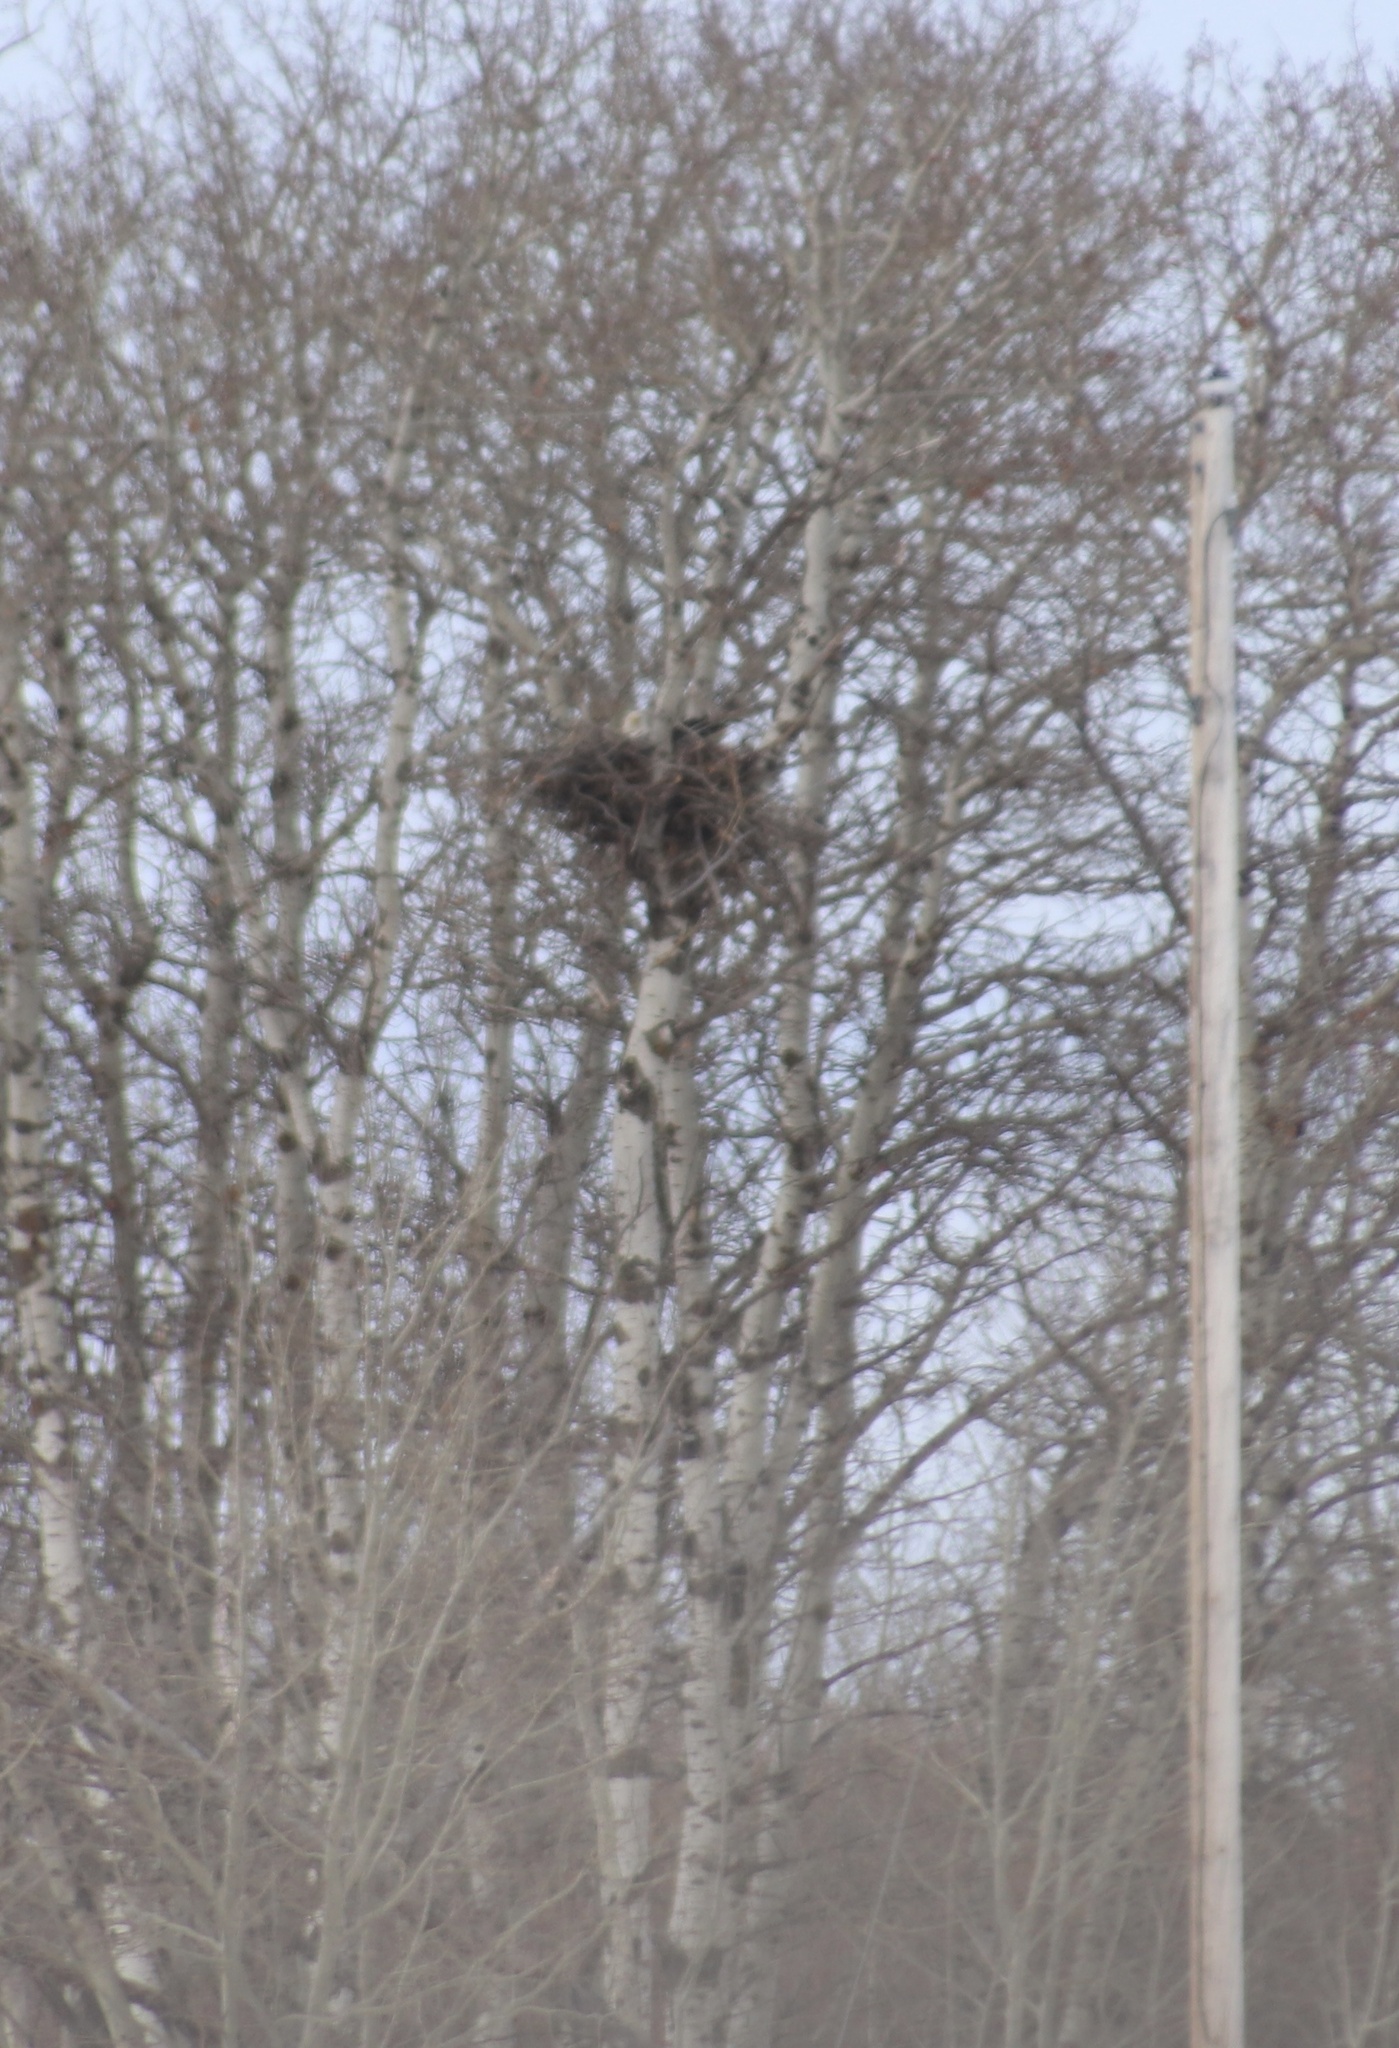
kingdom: Animalia
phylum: Chordata
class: Aves
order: Accipitriformes
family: Accipitridae
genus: Haliaeetus
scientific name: Haliaeetus leucocephalus
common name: Bald eagle
